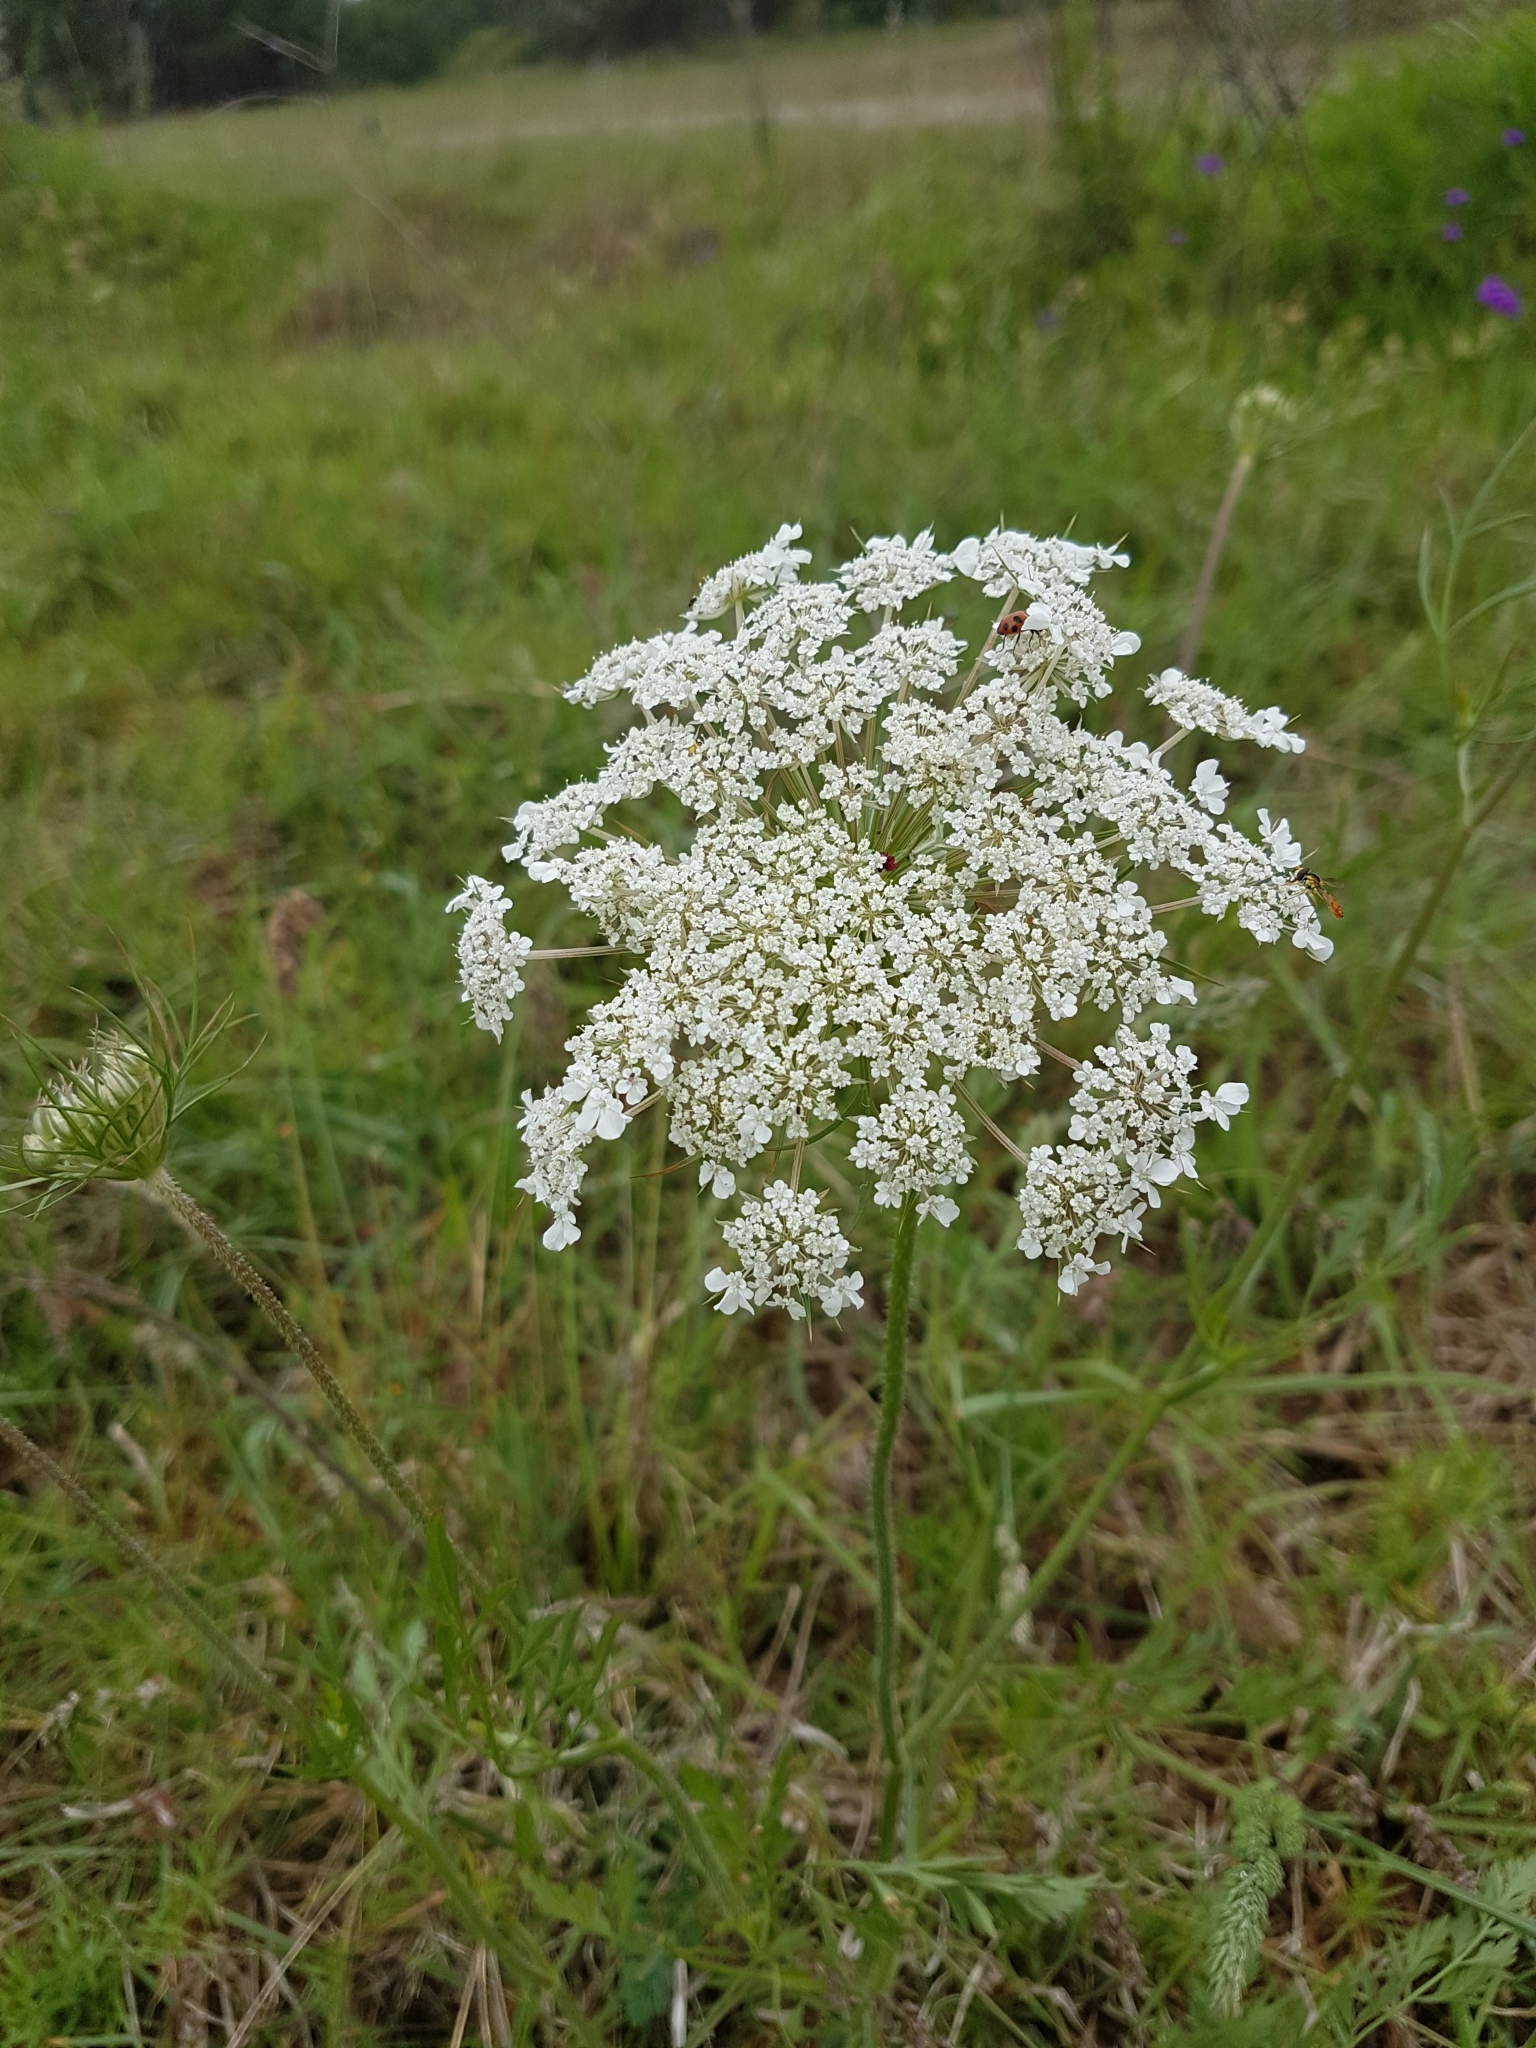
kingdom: Plantae
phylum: Tracheophyta
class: Magnoliopsida
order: Apiales
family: Apiaceae
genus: Daucus
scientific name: Daucus carota
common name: Wild carrot
